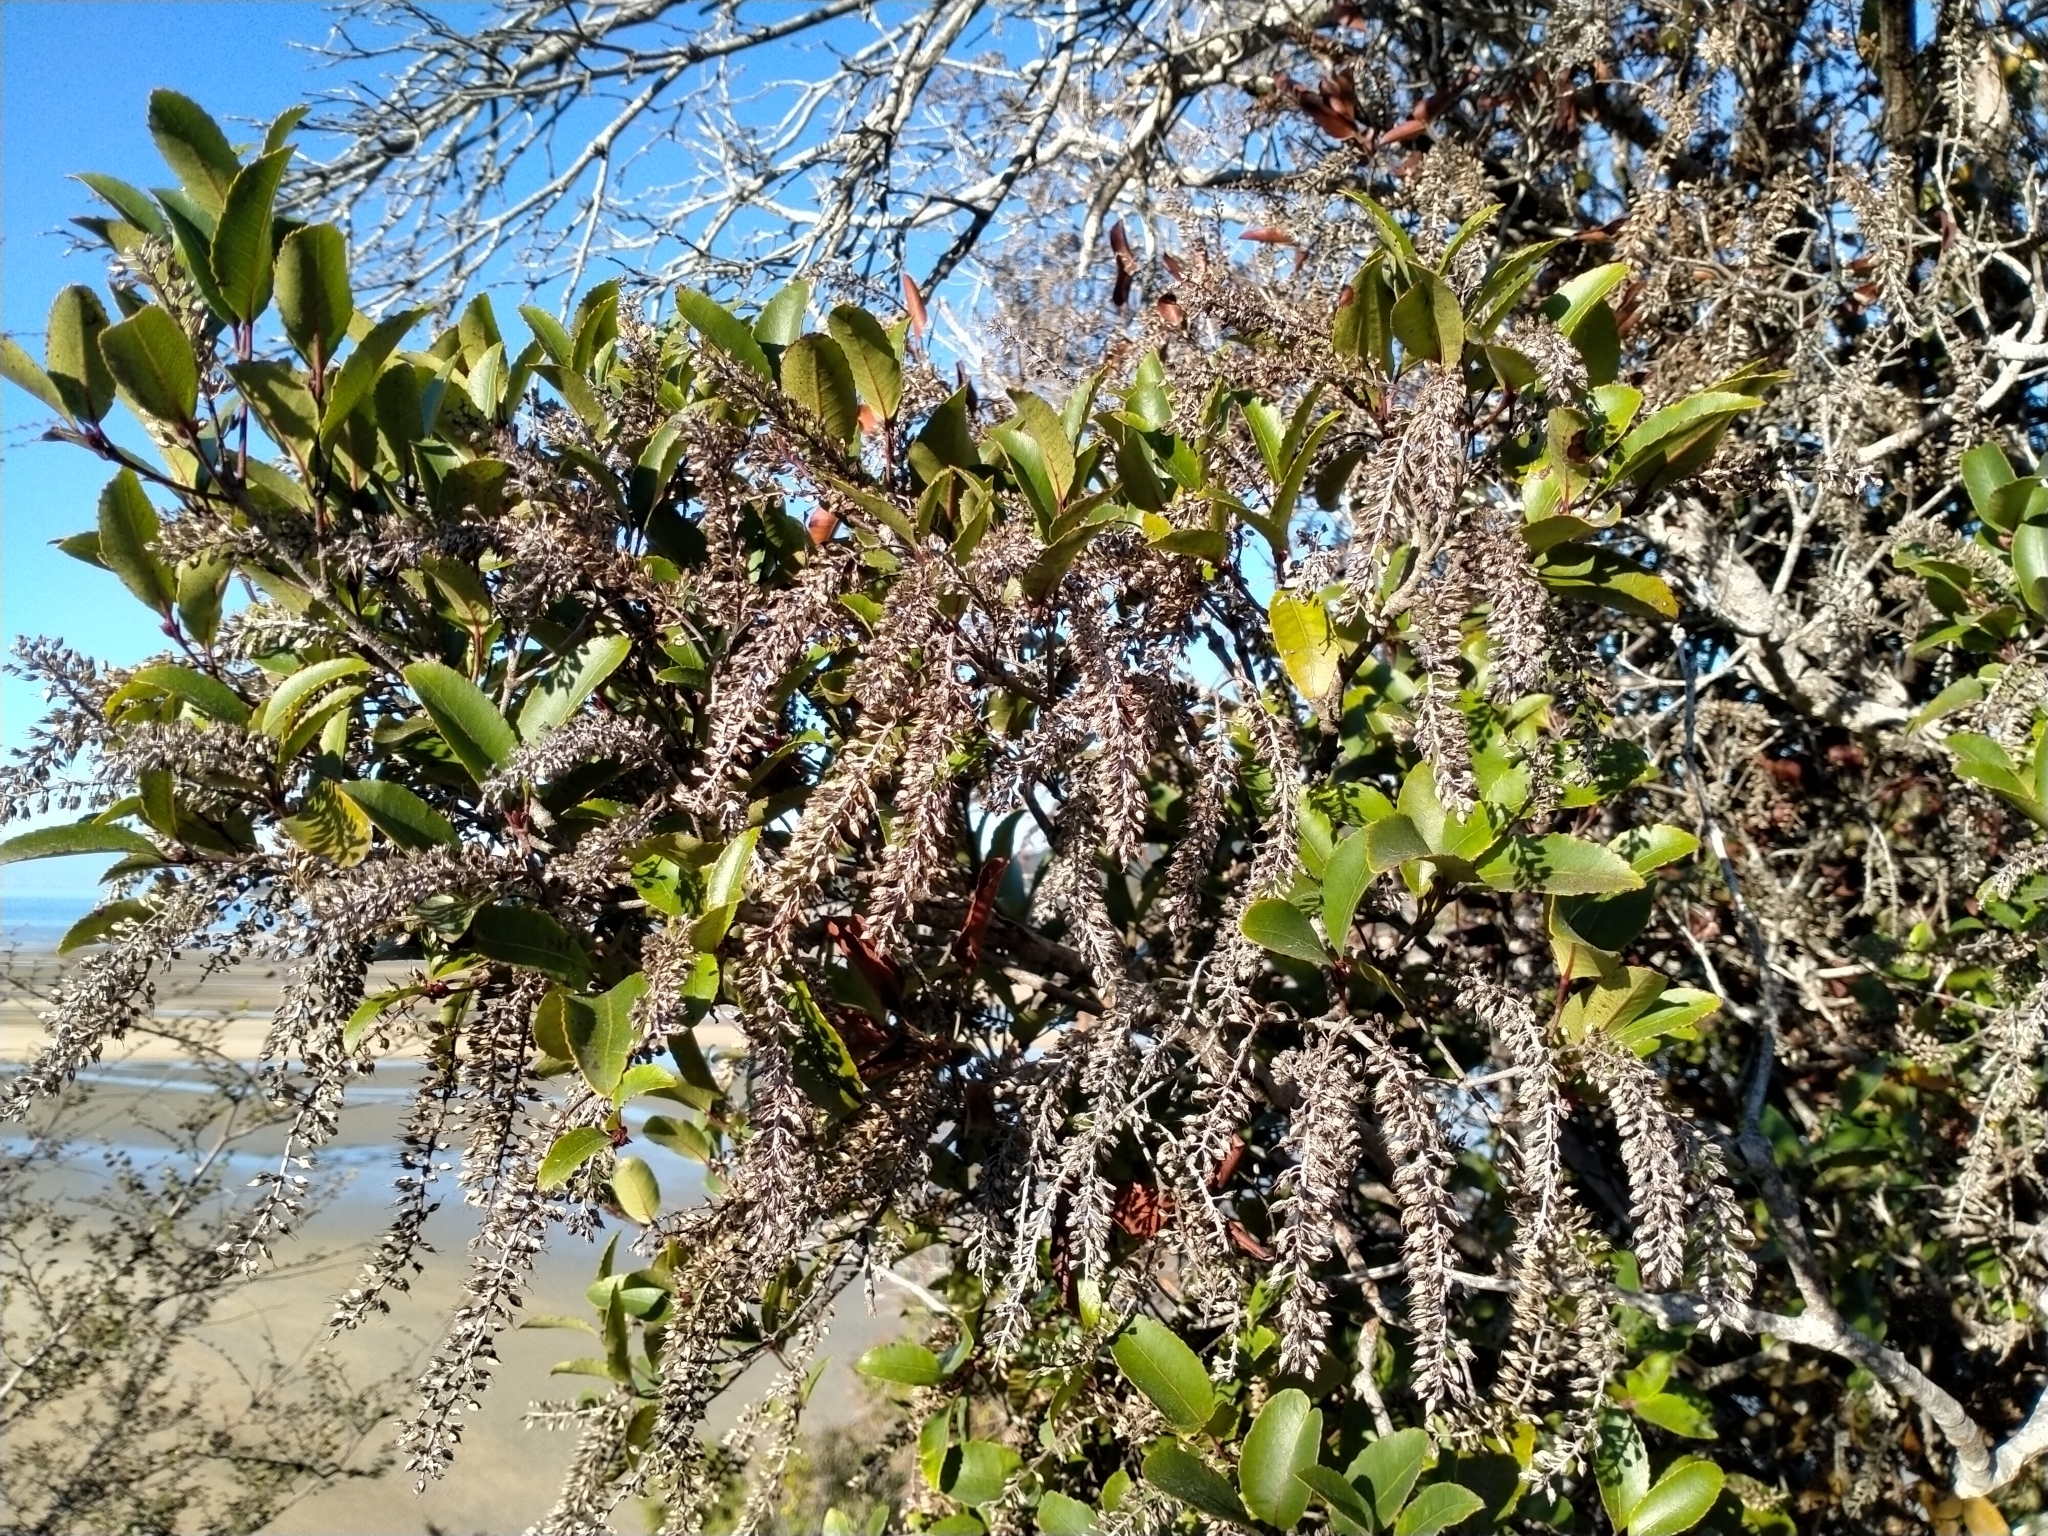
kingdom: Plantae
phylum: Tracheophyta
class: Magnoliopsida
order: Oxalidales
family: Cunoniaceae
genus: Pterophylla
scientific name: Pterophylla racemosa
